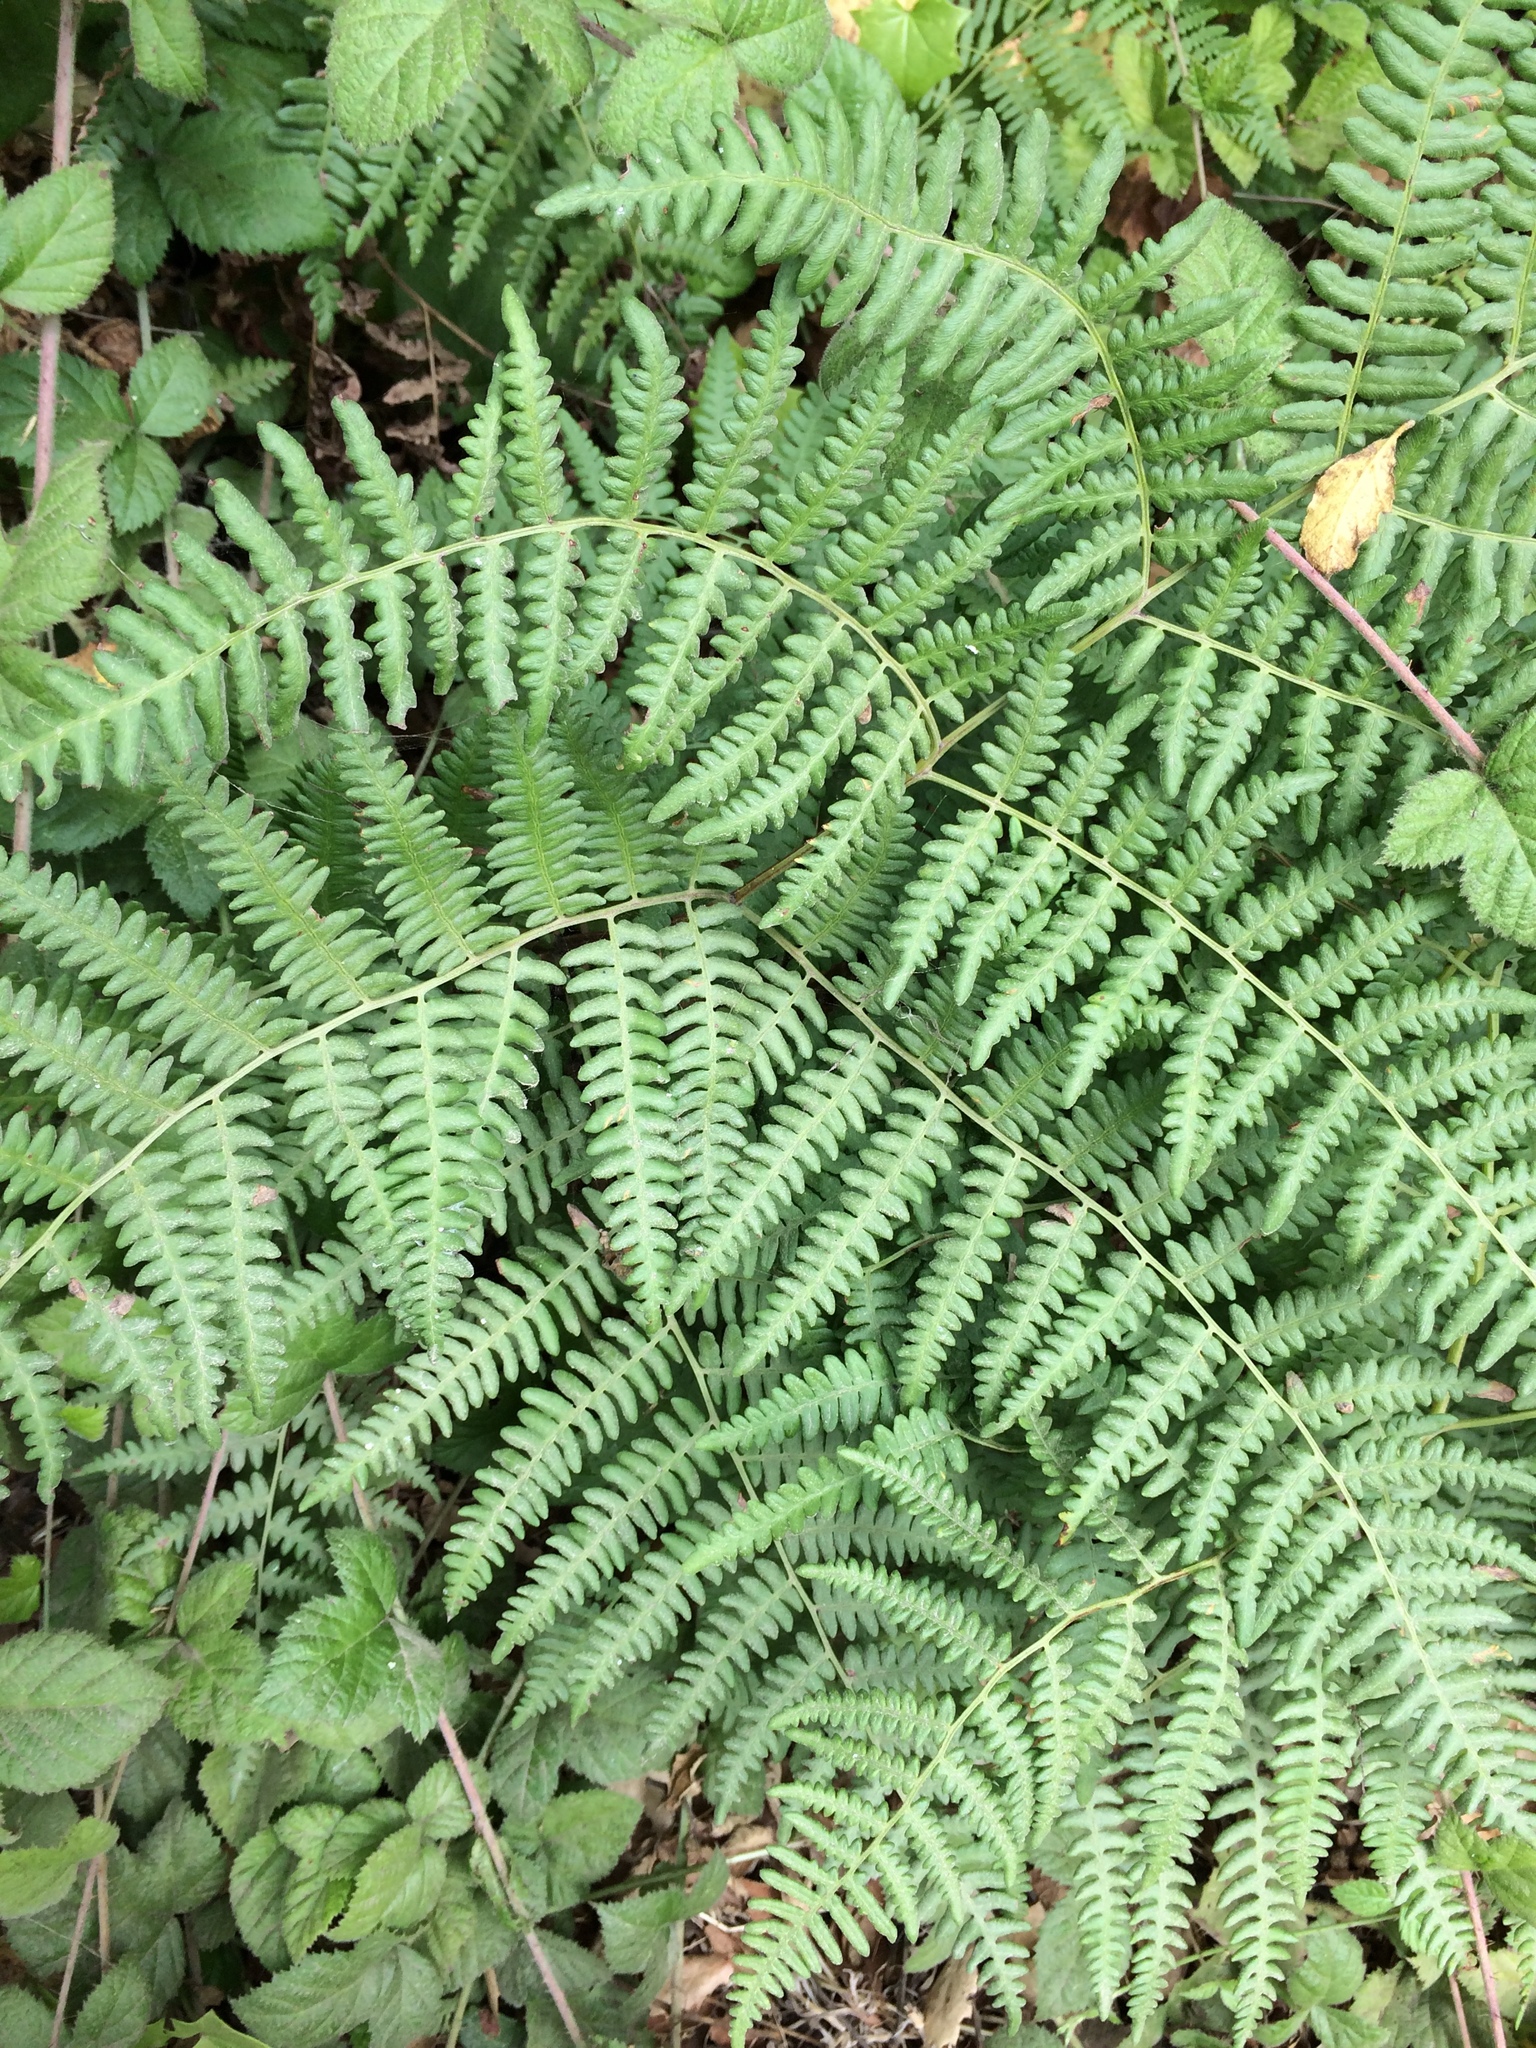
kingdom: Plantae
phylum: Tracheophyta
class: Polypodiopsida
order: Polypodiales
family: Dennstaedtiaceae
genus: Pteridium
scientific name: Pteridium aquilinum
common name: Bracken
